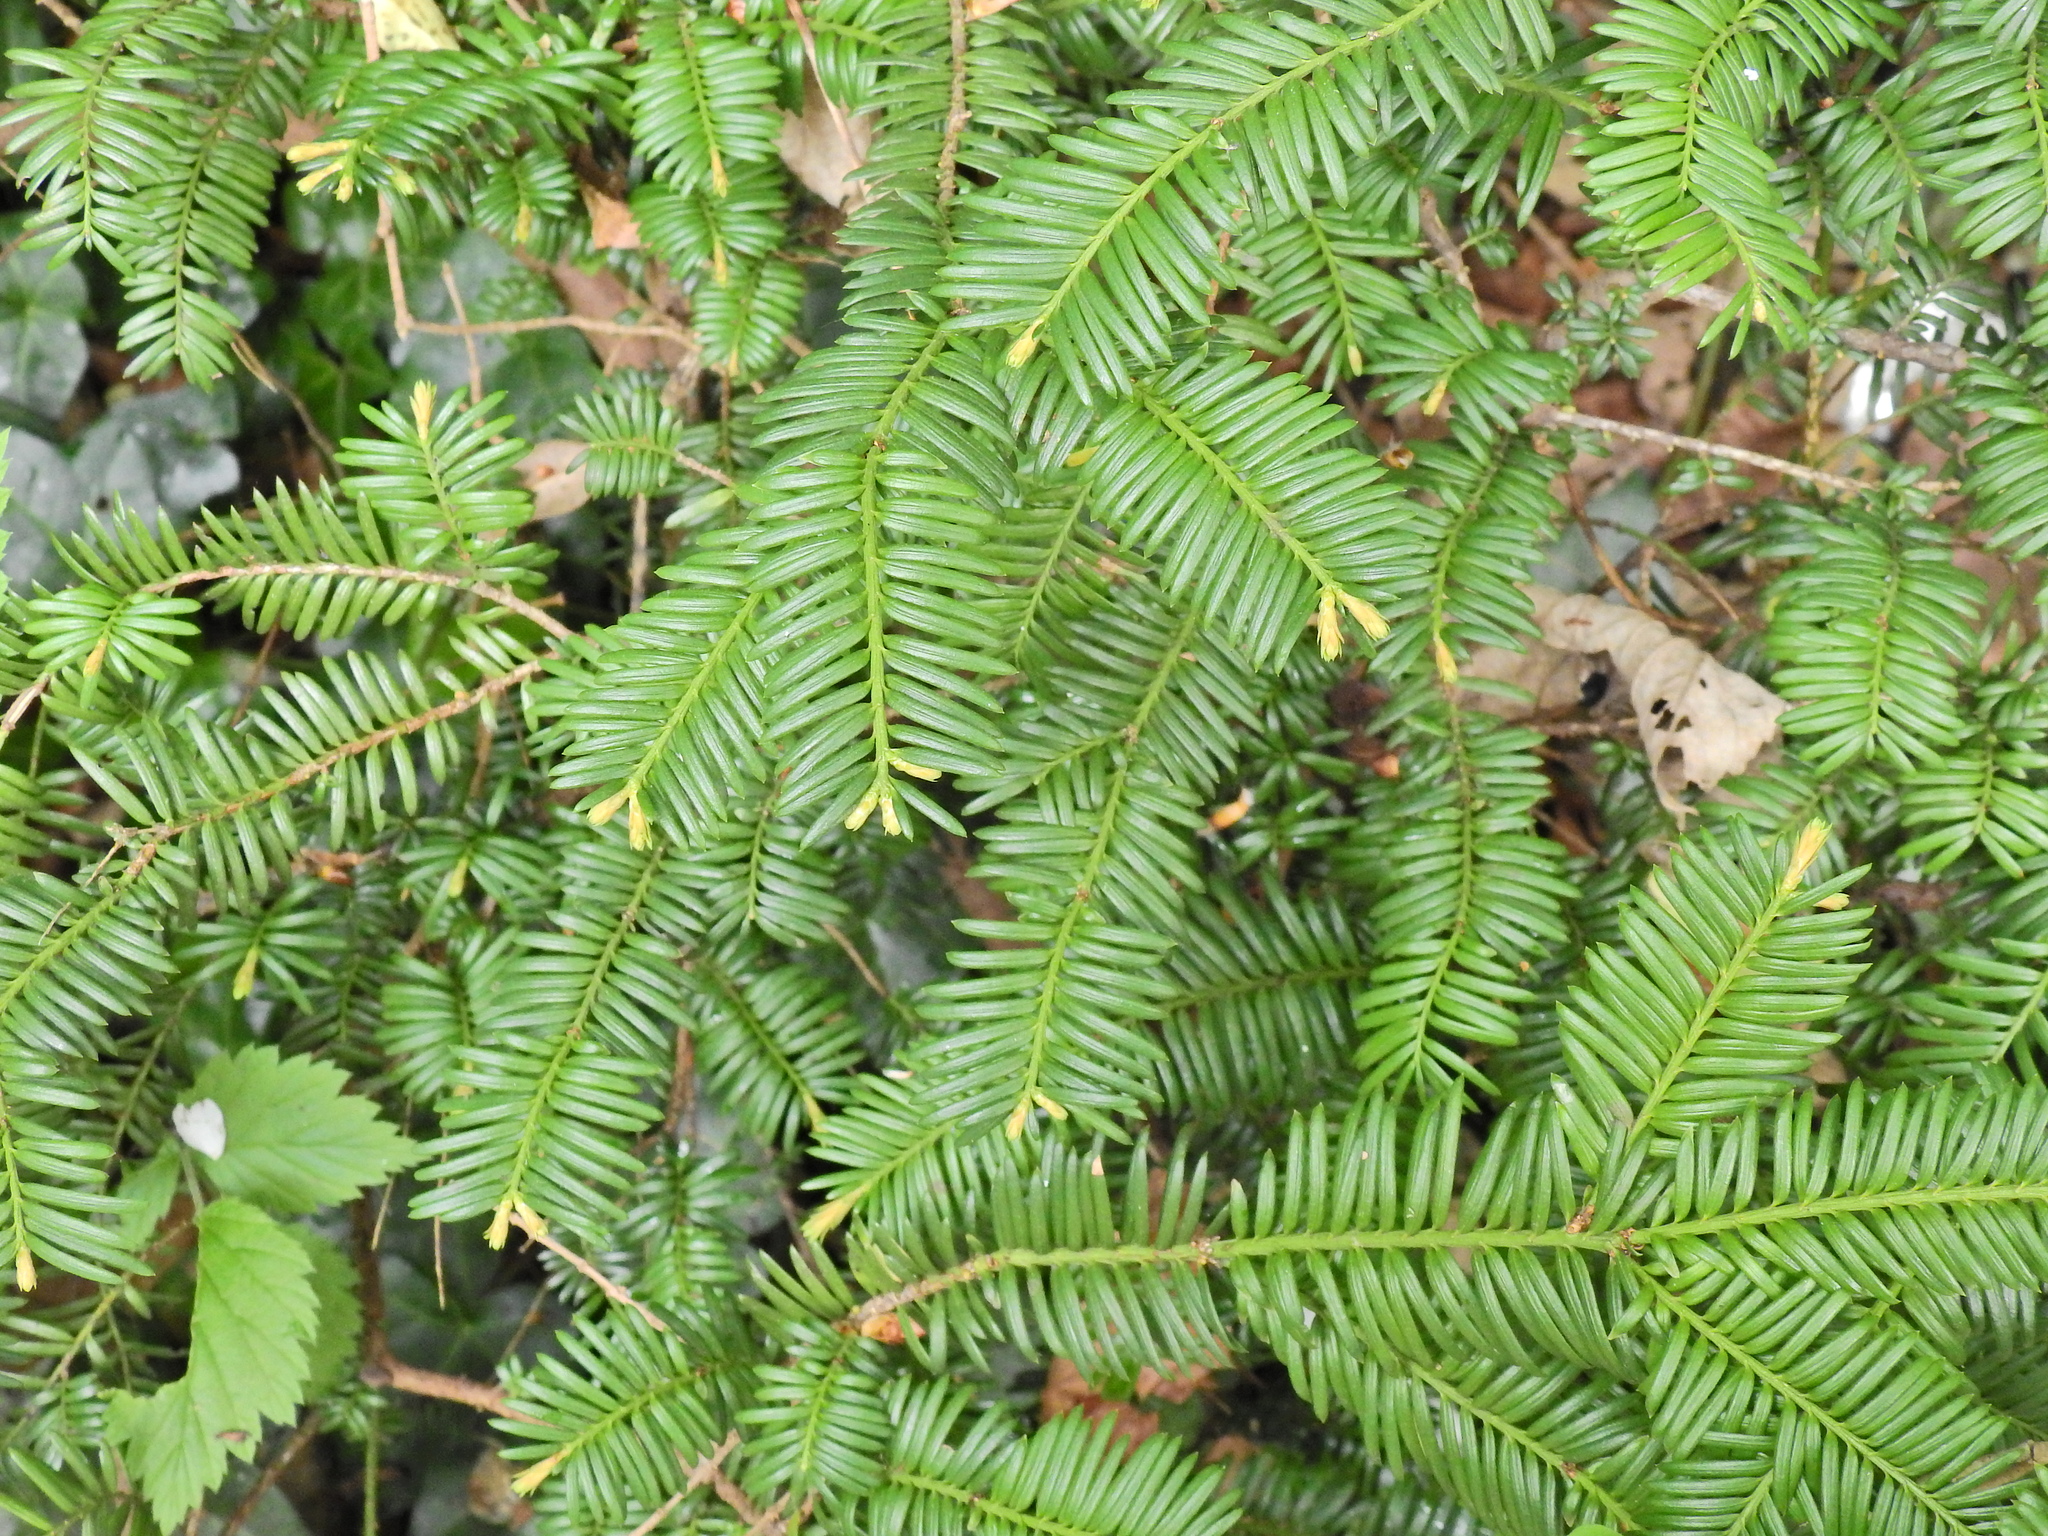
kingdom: Plantae
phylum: Tracheophyta
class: Pinopsida
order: Pinales
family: Taxaceae
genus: Taxus
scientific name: Taxus baccata
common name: Yew
